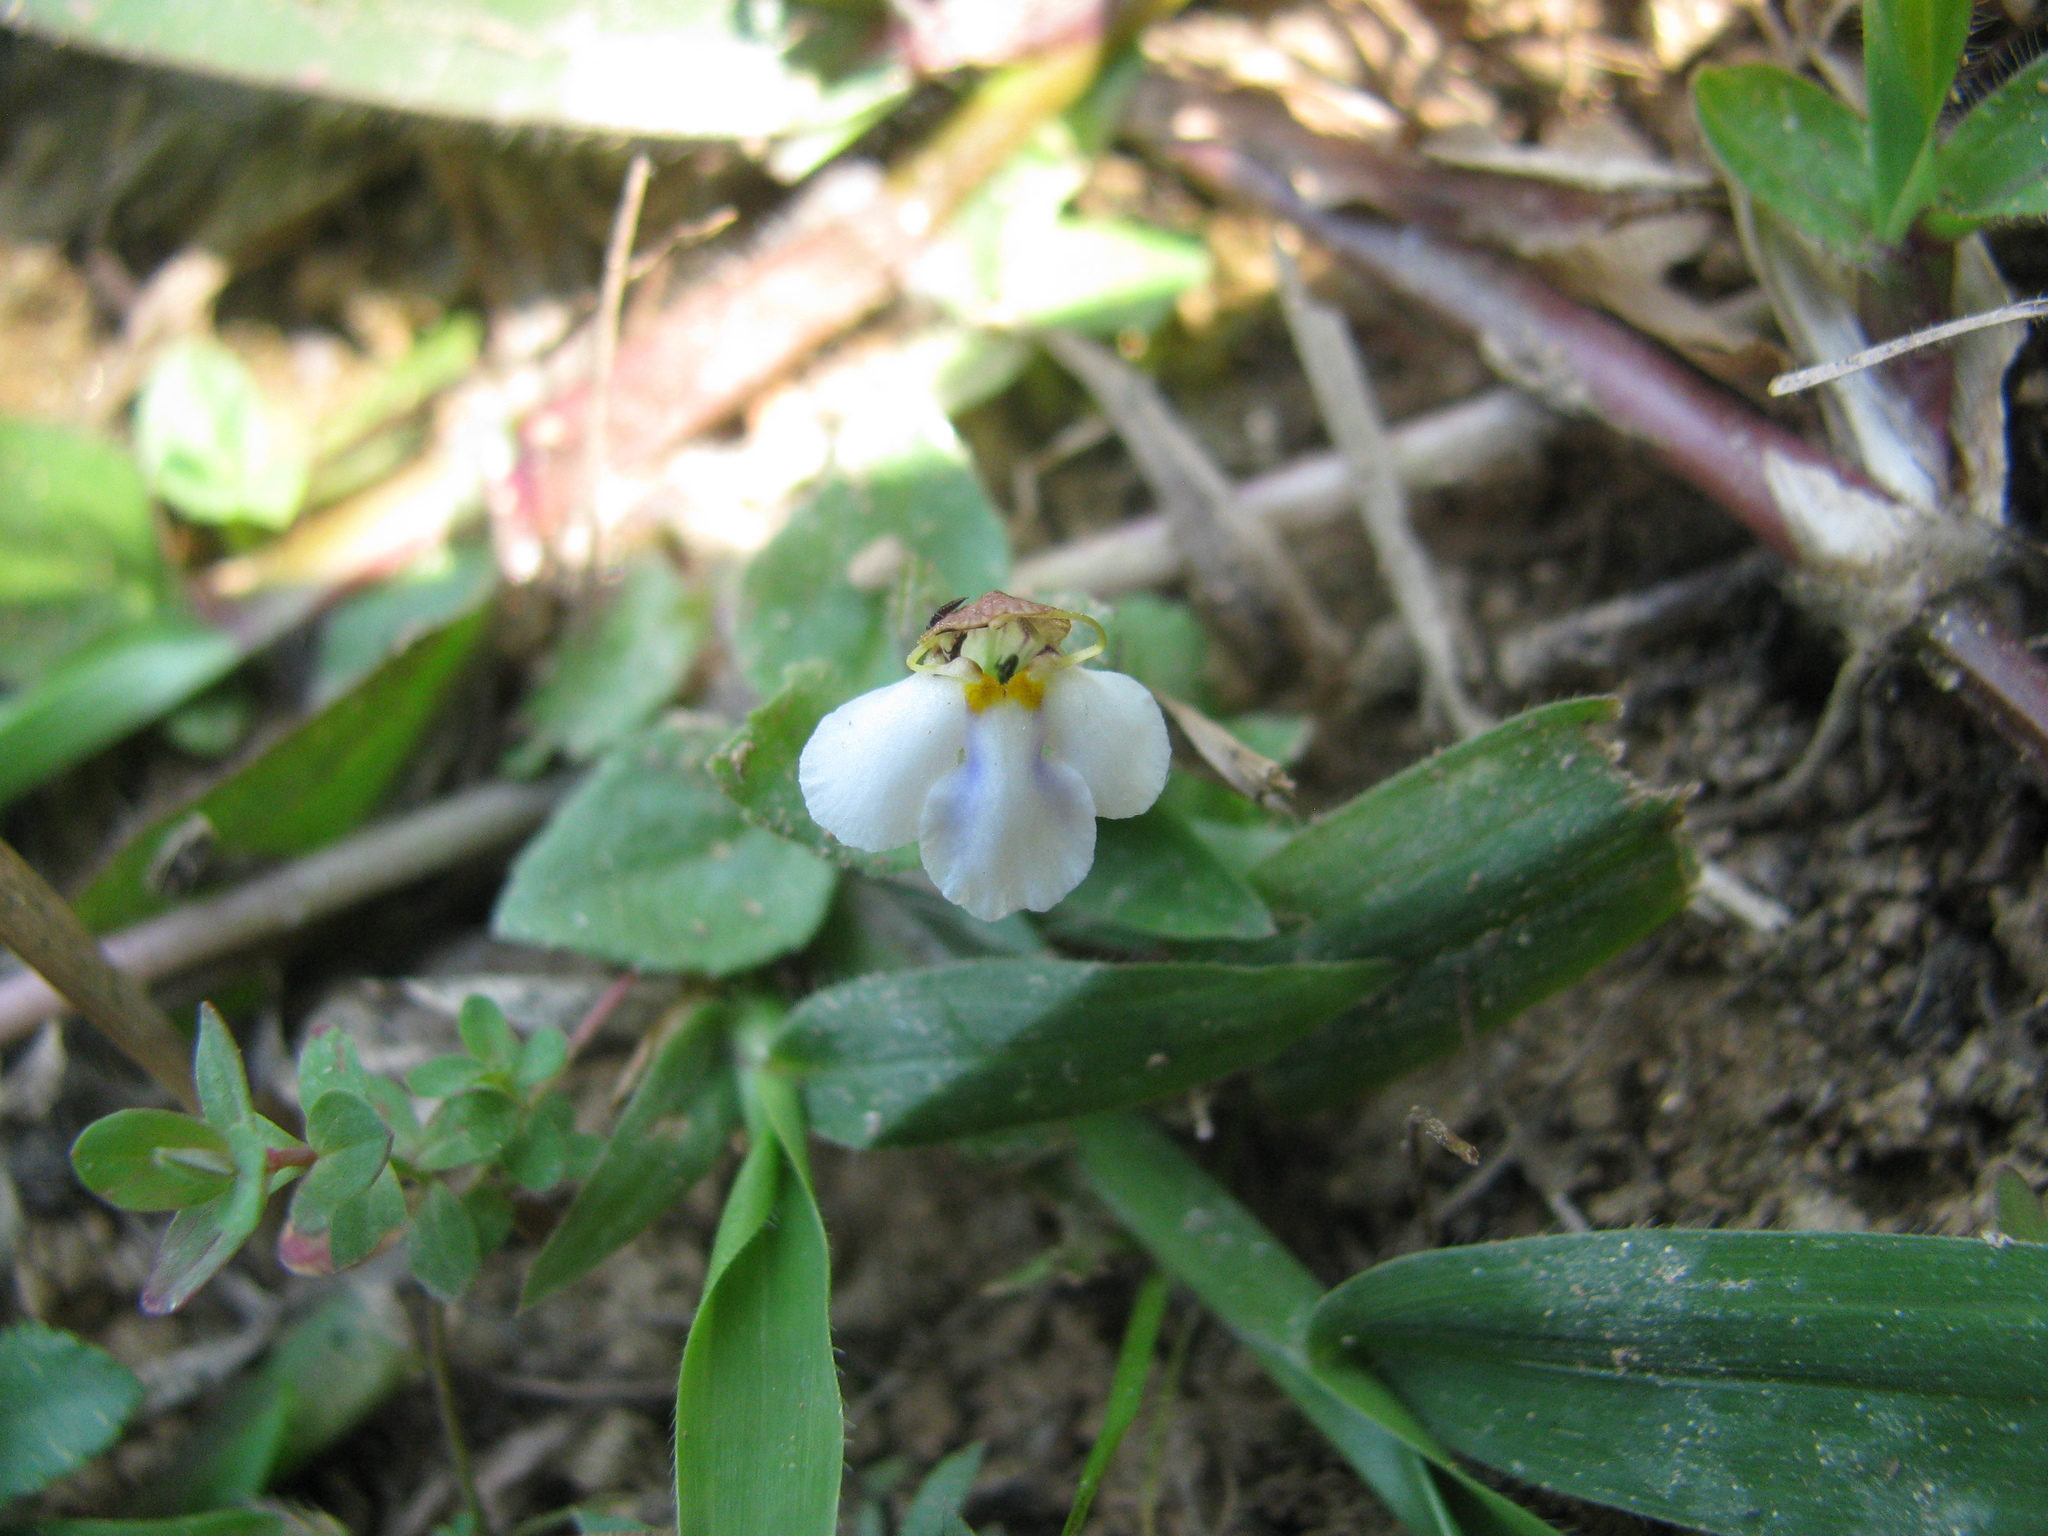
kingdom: Plantae
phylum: Tracheophyta
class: Magnoliopsida
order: Lamiales
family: Linderniaceae
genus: Yamazakia
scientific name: Yamazakia pusilla
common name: Tiny slitwort
